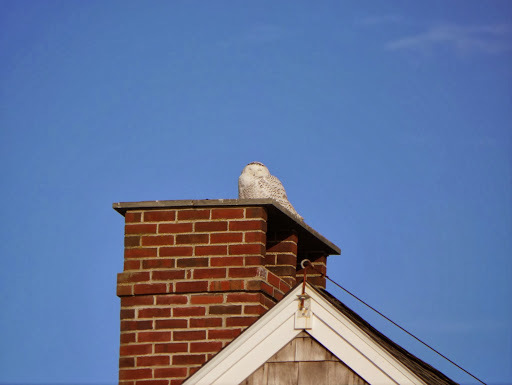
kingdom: Animalia
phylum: Chordata
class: Aves
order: Strigiformes
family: Strigidae
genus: Bubo
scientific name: Bubo scandiacus
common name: Snowy owl
